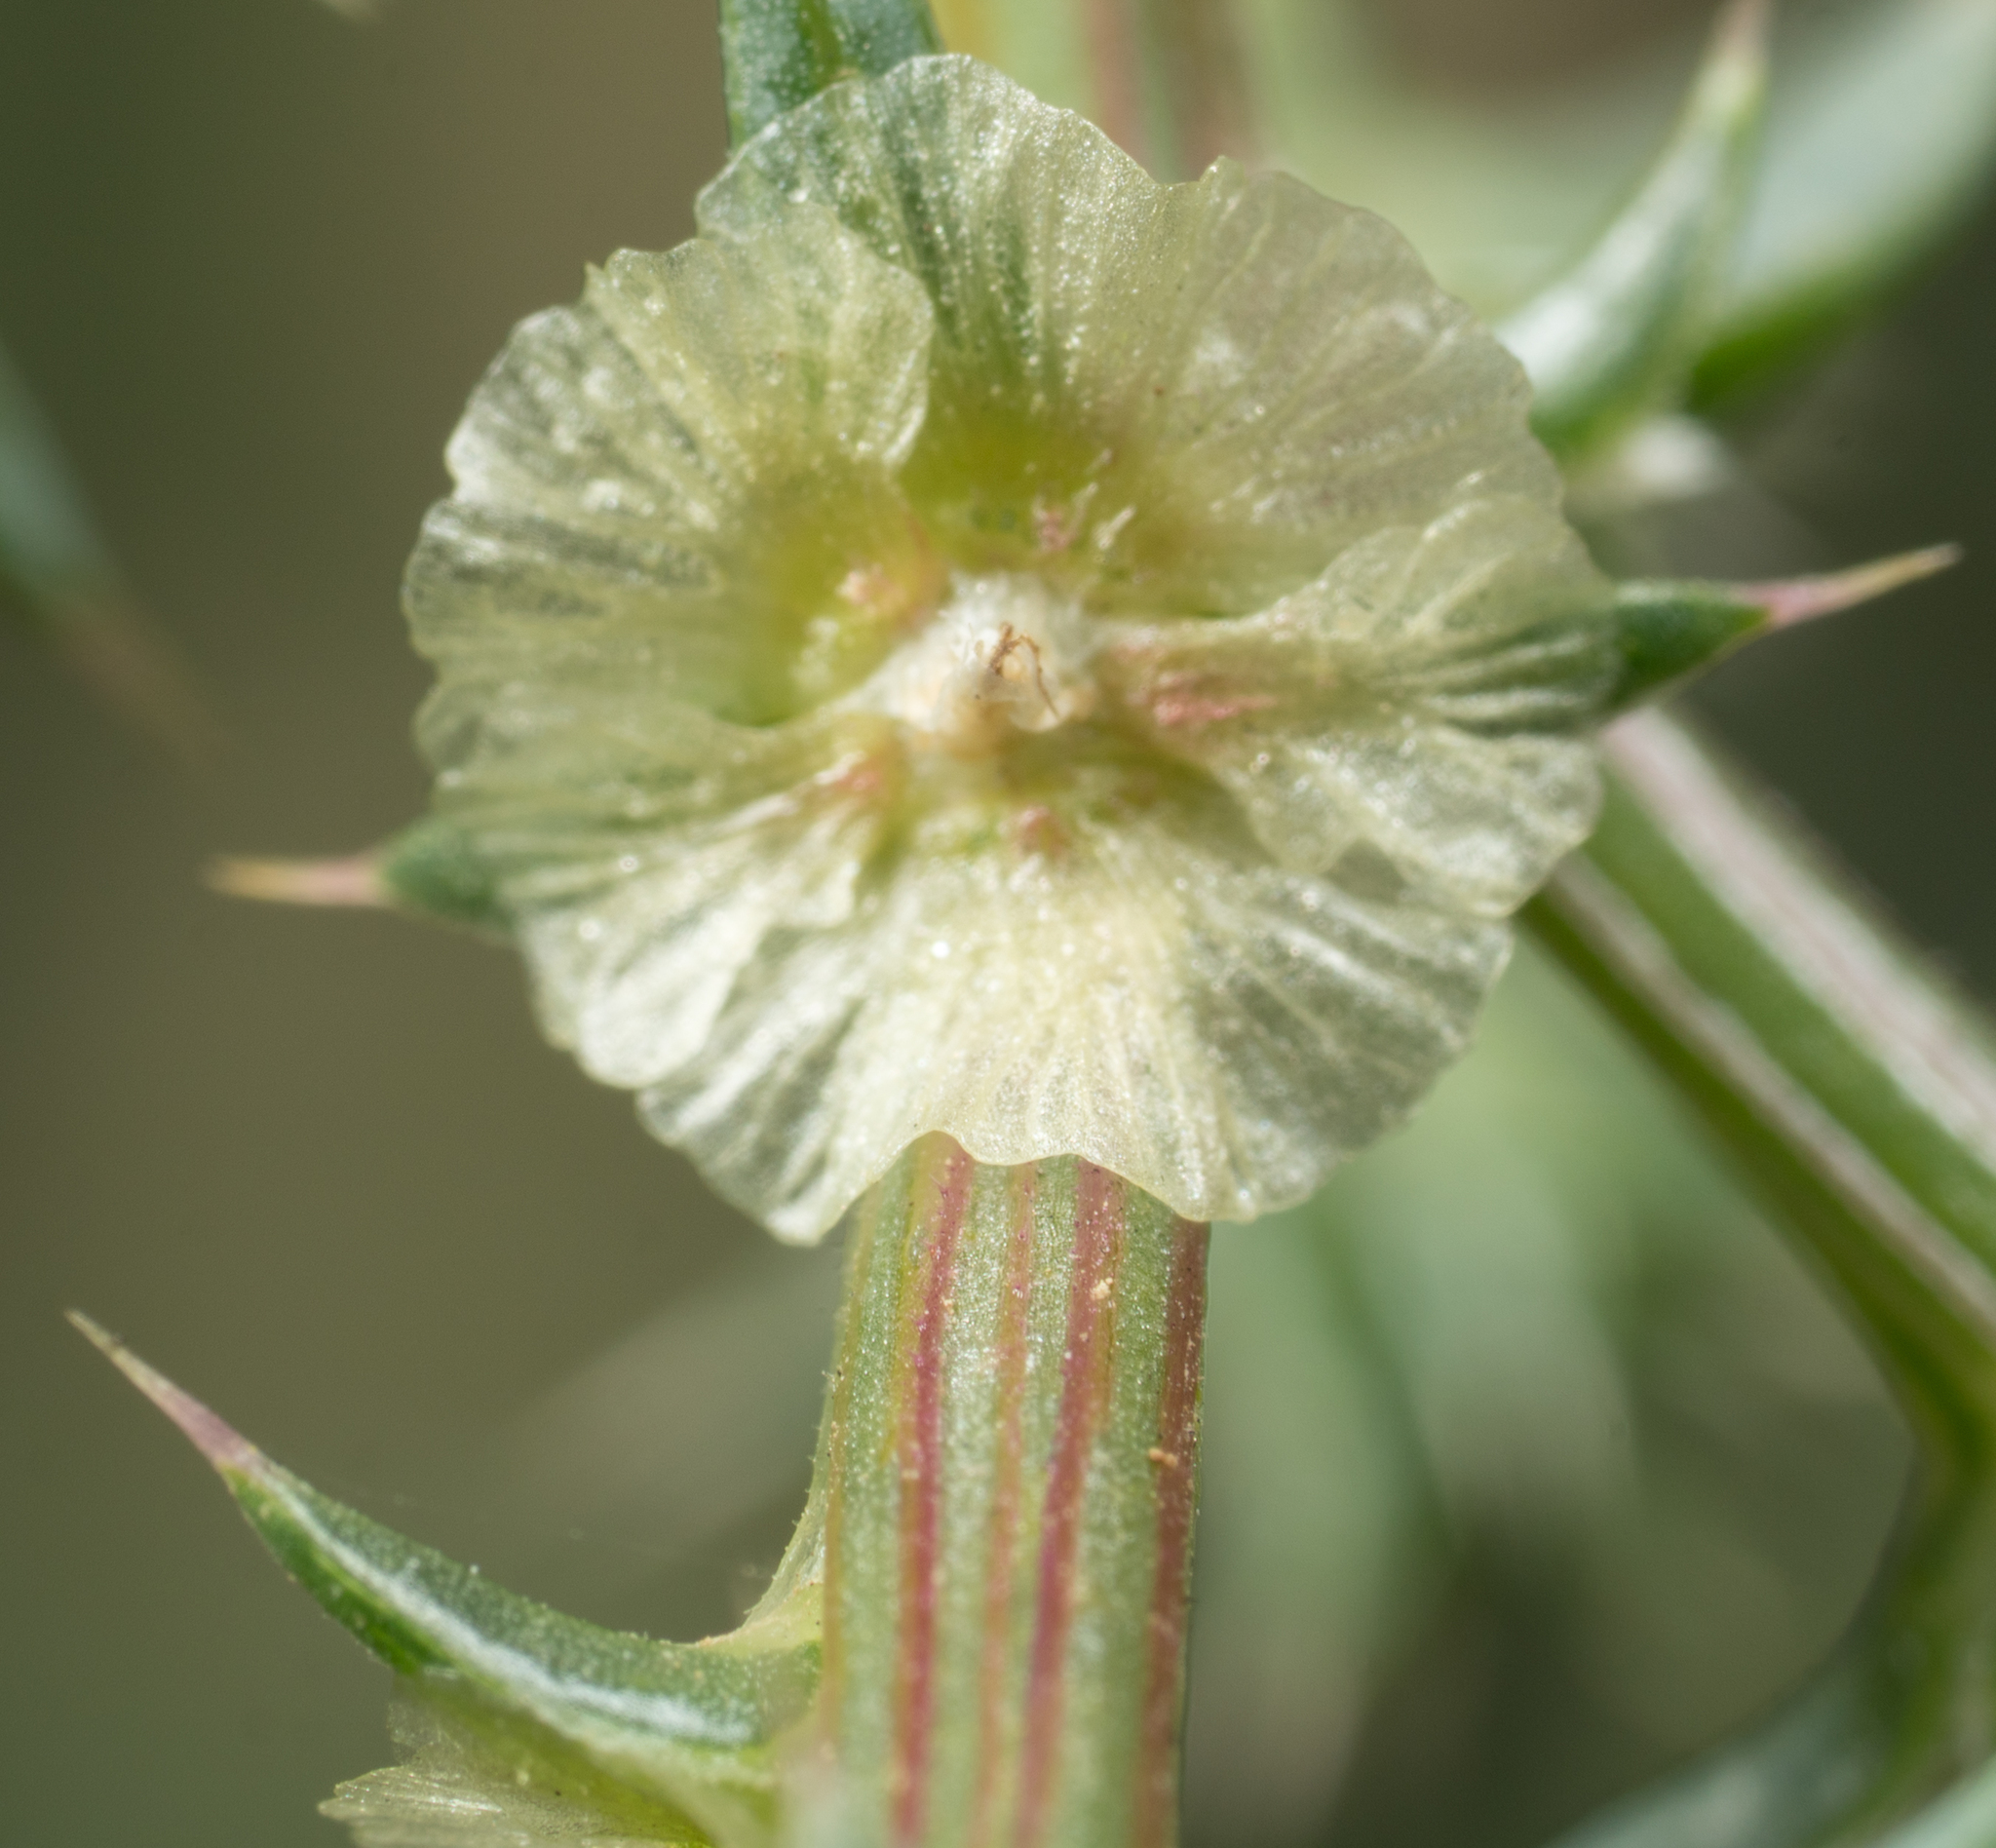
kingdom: Plantae
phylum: Tracheophyta
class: Magnoliopsida
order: Caryophyllales
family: Amaranthaceae
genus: Salsola
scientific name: Salsola australis
